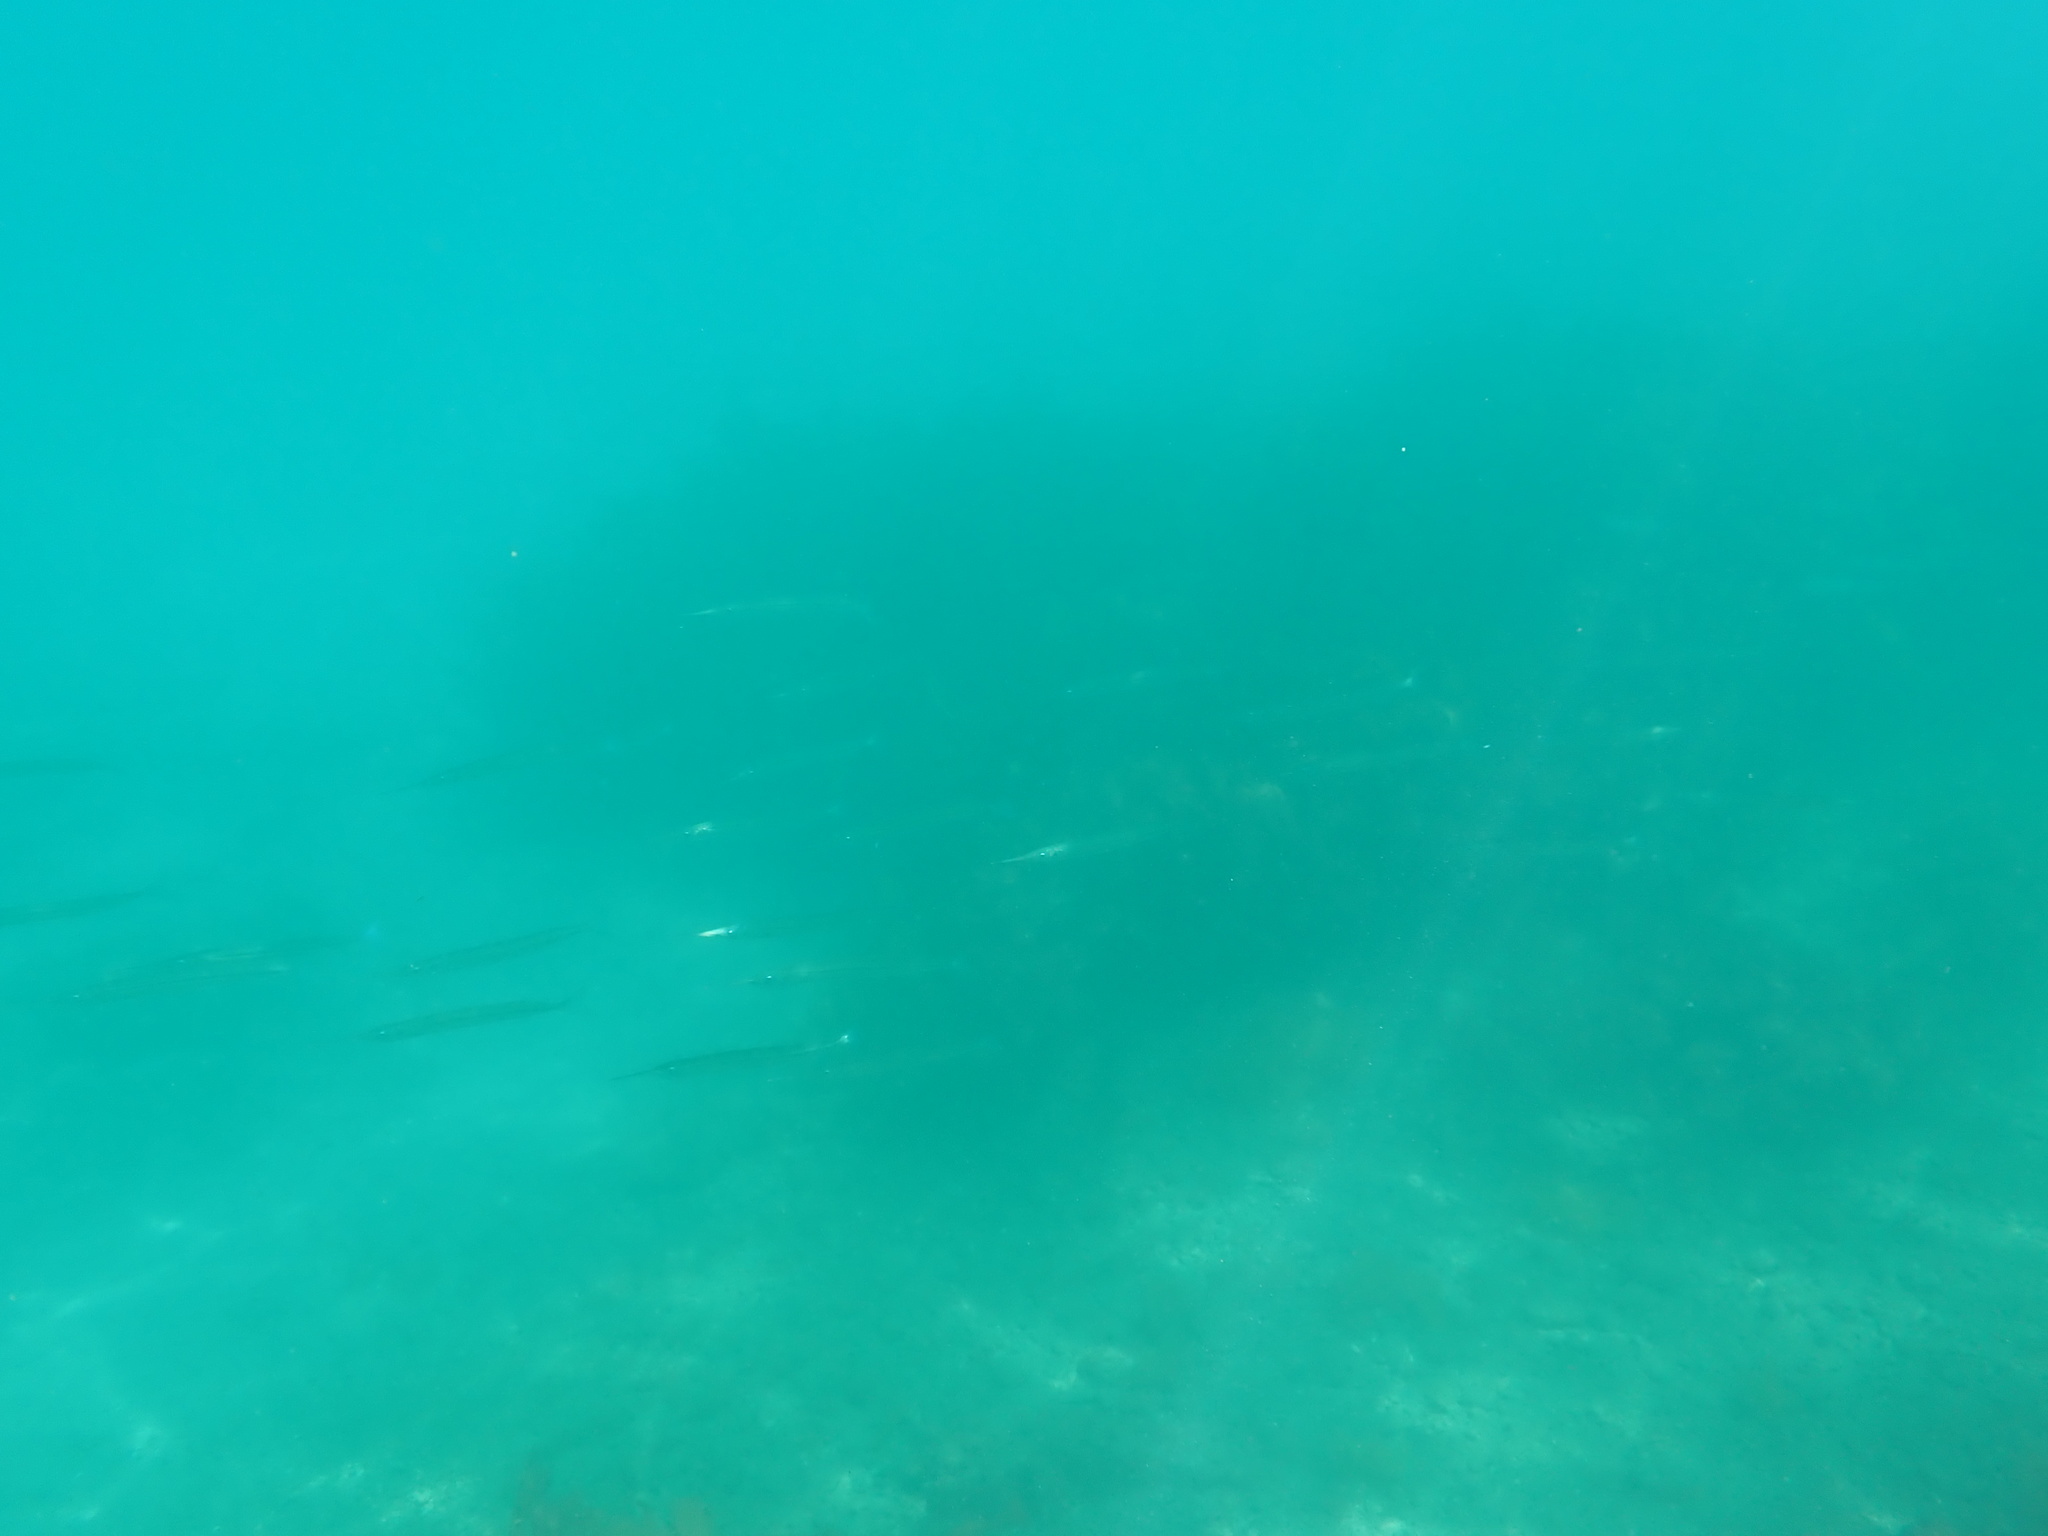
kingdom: Animalia
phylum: Chordata
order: Beloniformes
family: Hemiramphidae
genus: Hyporhamphus
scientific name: Hyporhamphus ihi
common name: Garfish
